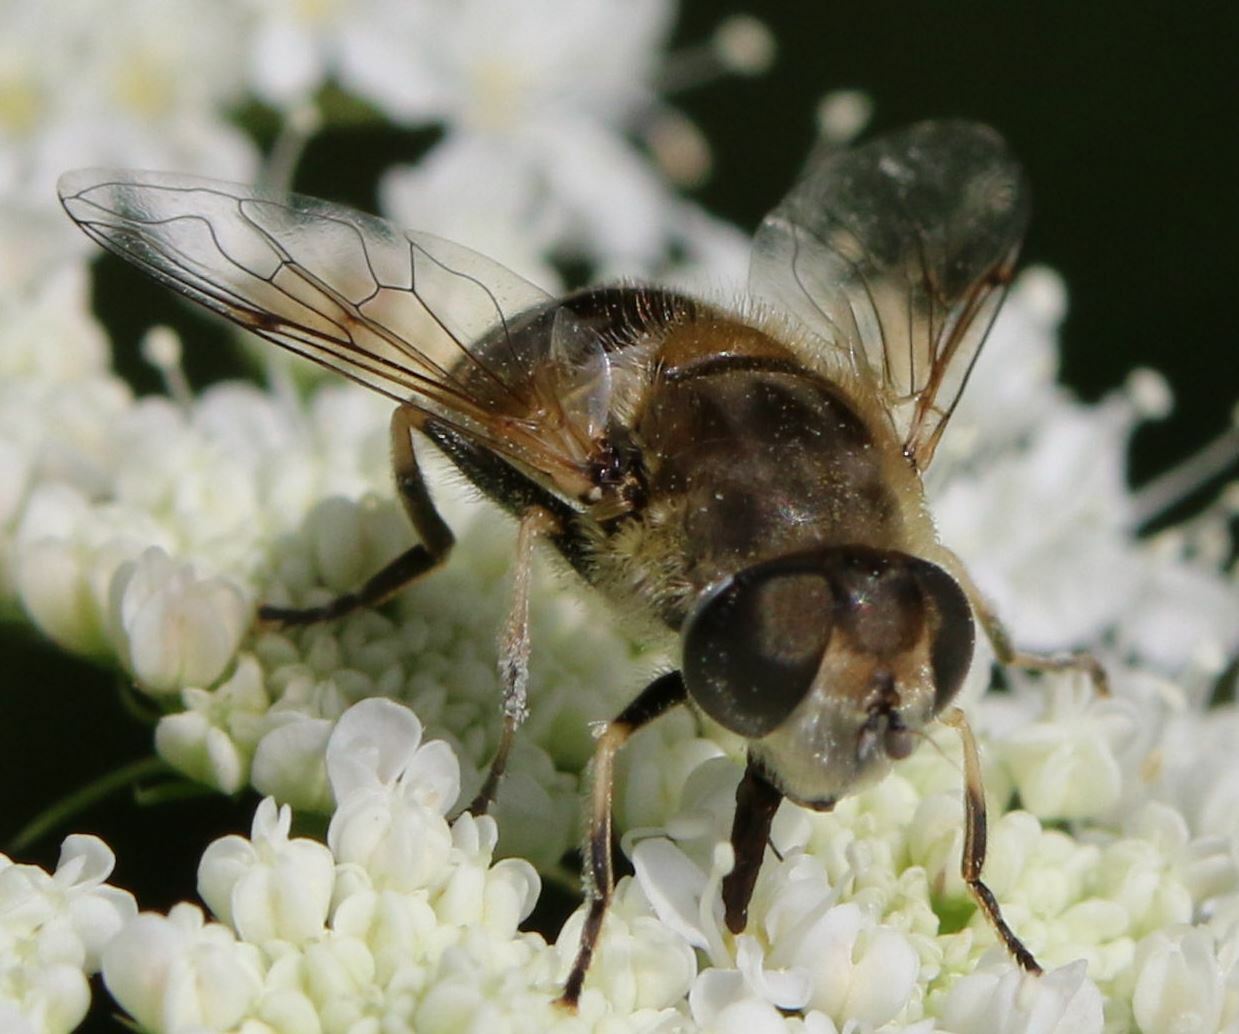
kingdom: Animalia
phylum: Arthropoda
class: Insecta
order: Diptera
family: Syrphidae
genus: Eristalis
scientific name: Eristalis arbustorum
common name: Hover fly
